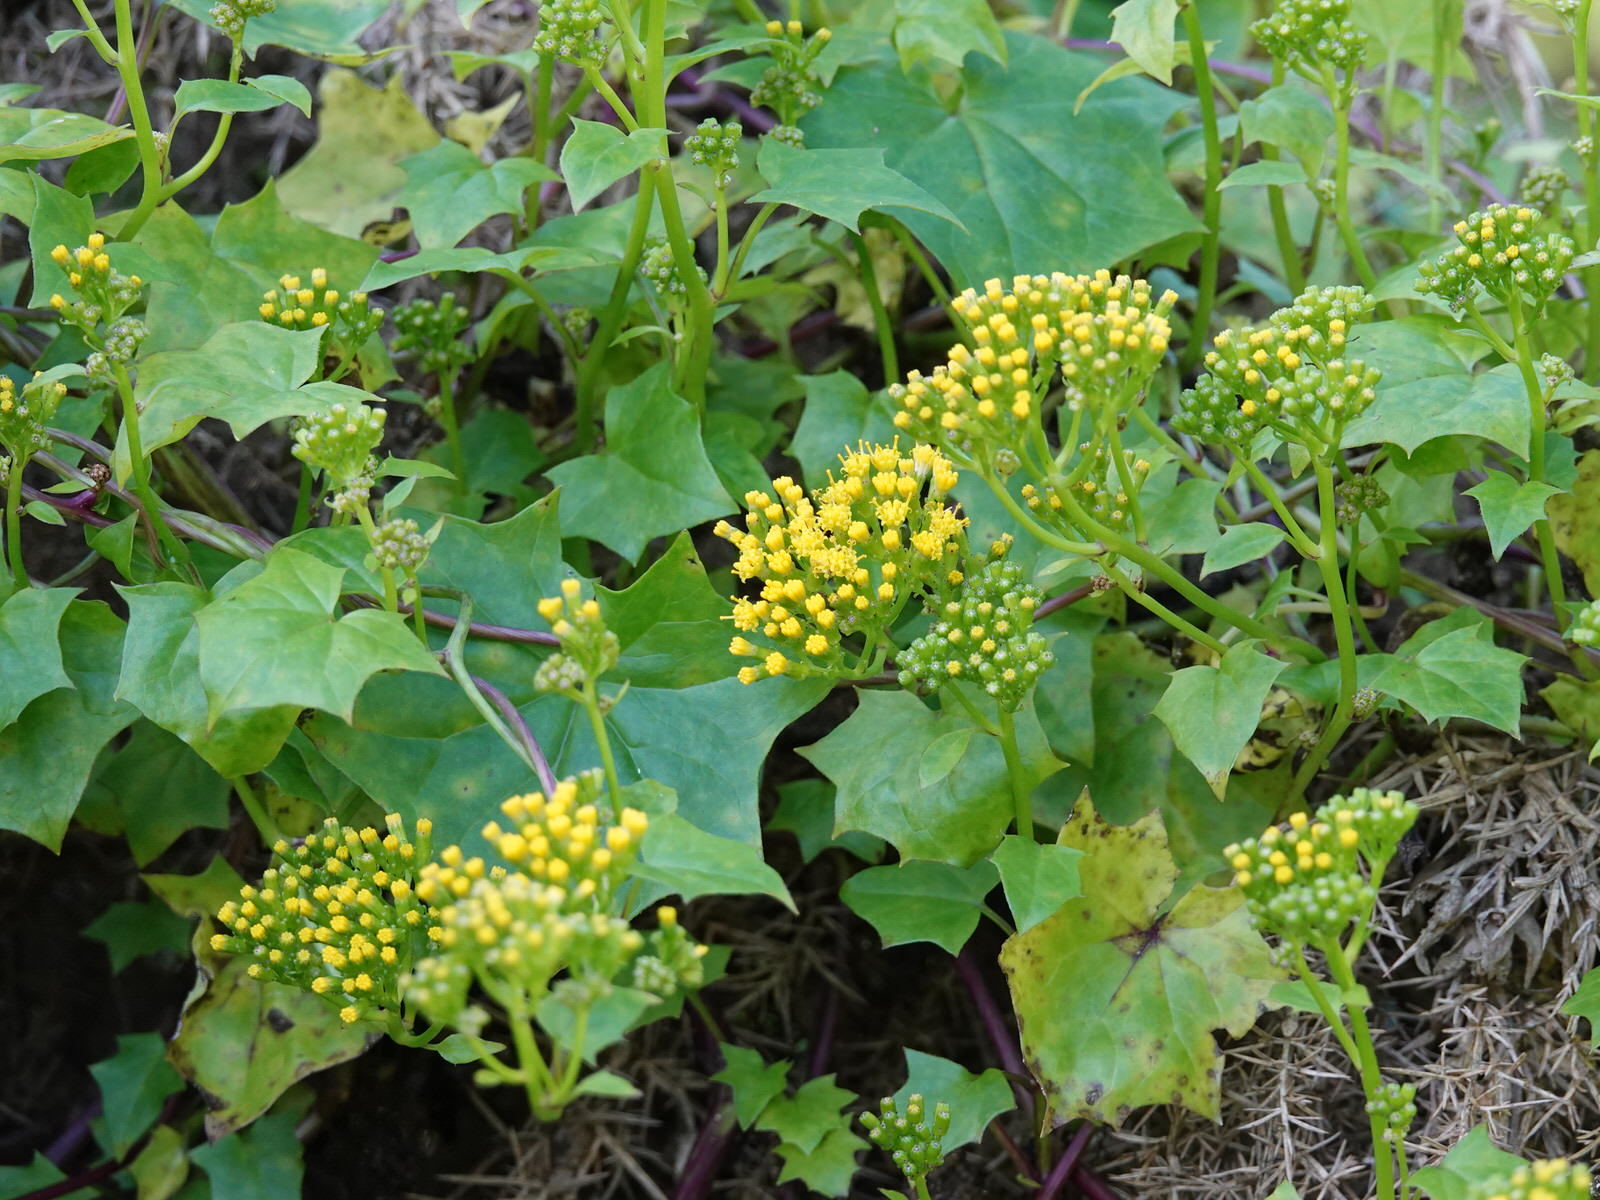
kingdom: Plantae
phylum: Tracheophyta
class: Magnoliopsida
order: Asterales
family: Asteraceae
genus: Delairea
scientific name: Delairea odorata
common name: Cape-ivy
